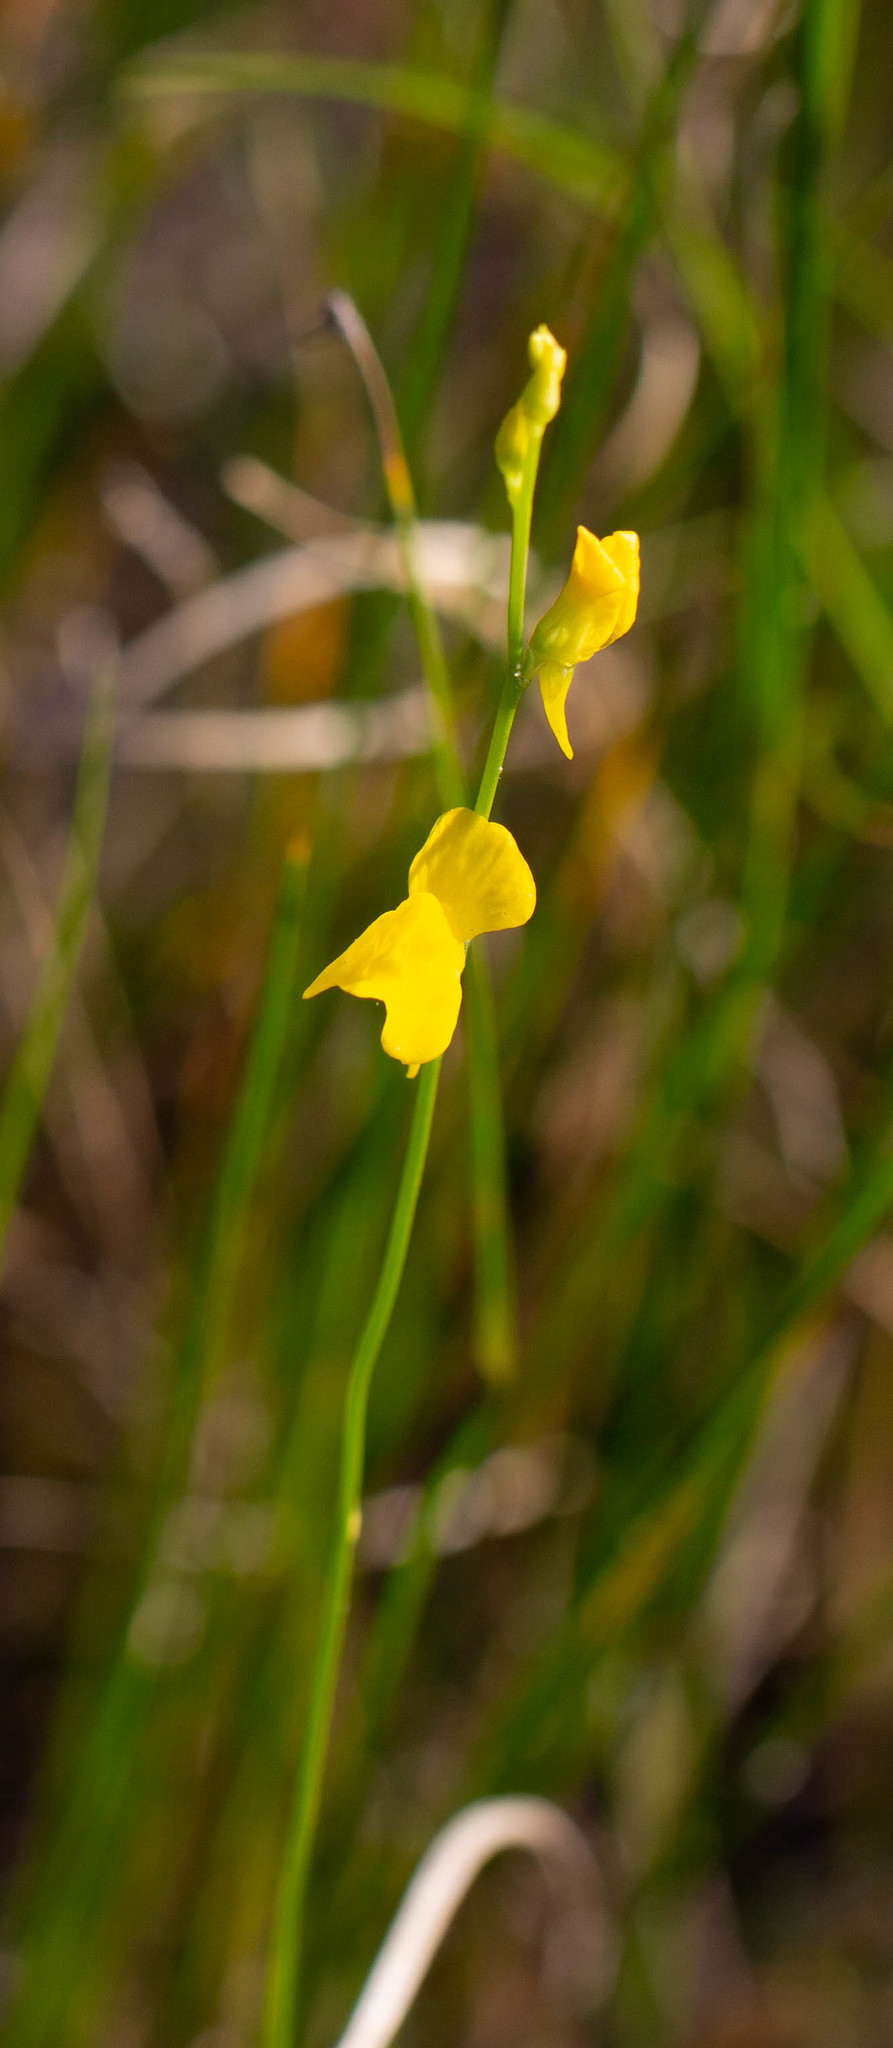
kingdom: Plantae
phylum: Tracheophyta
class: Magnoliopsida
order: Lamiales
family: Lentibulariaceae
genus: Utricularia
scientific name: Utricularia juncea
